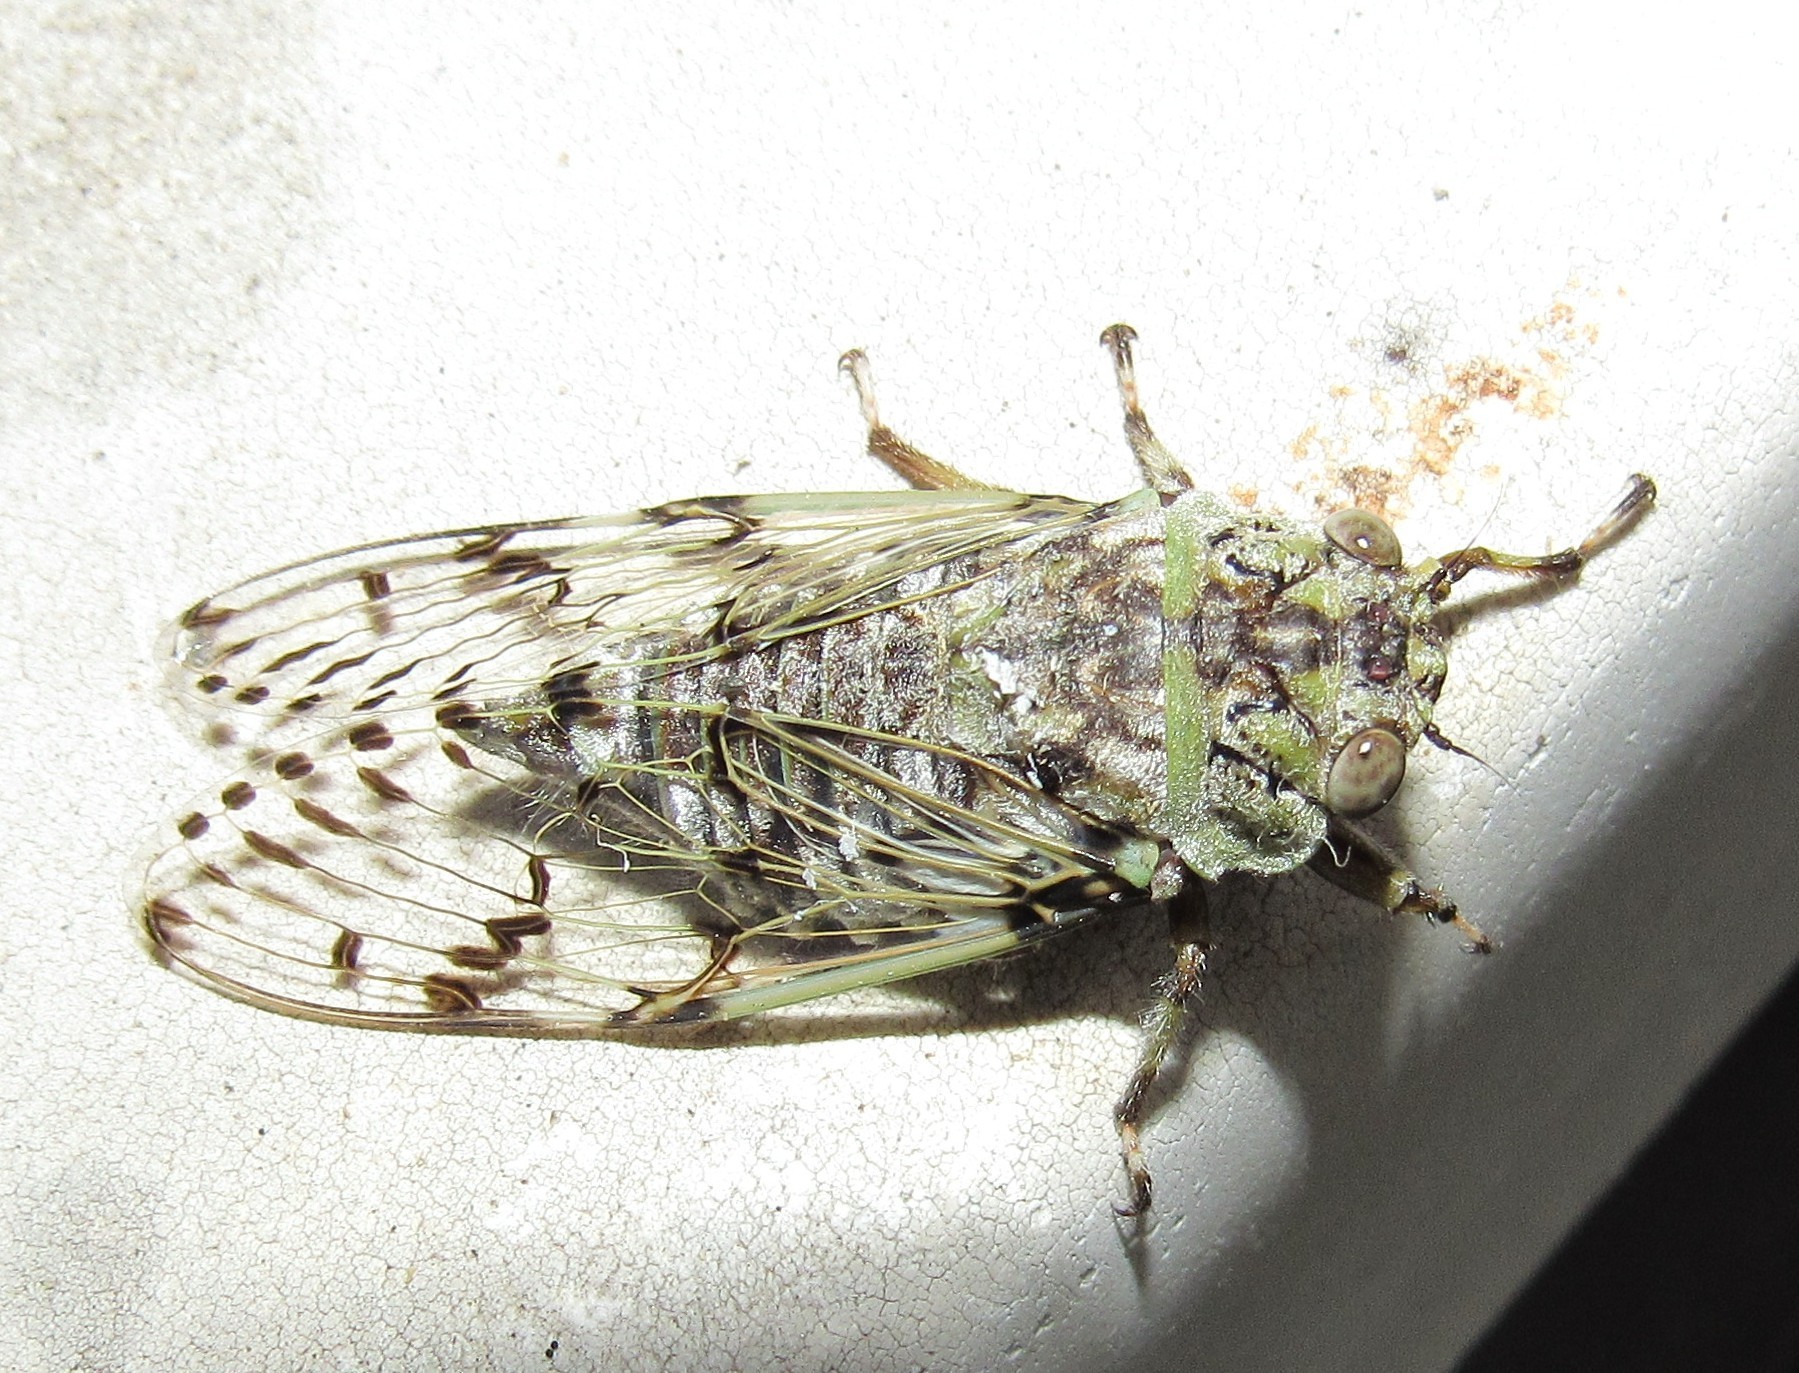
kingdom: Animalia
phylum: Arthropoda
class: Insecta
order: Hemiptera
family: Cicadidae
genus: Proarna
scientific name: Proarna insignis
